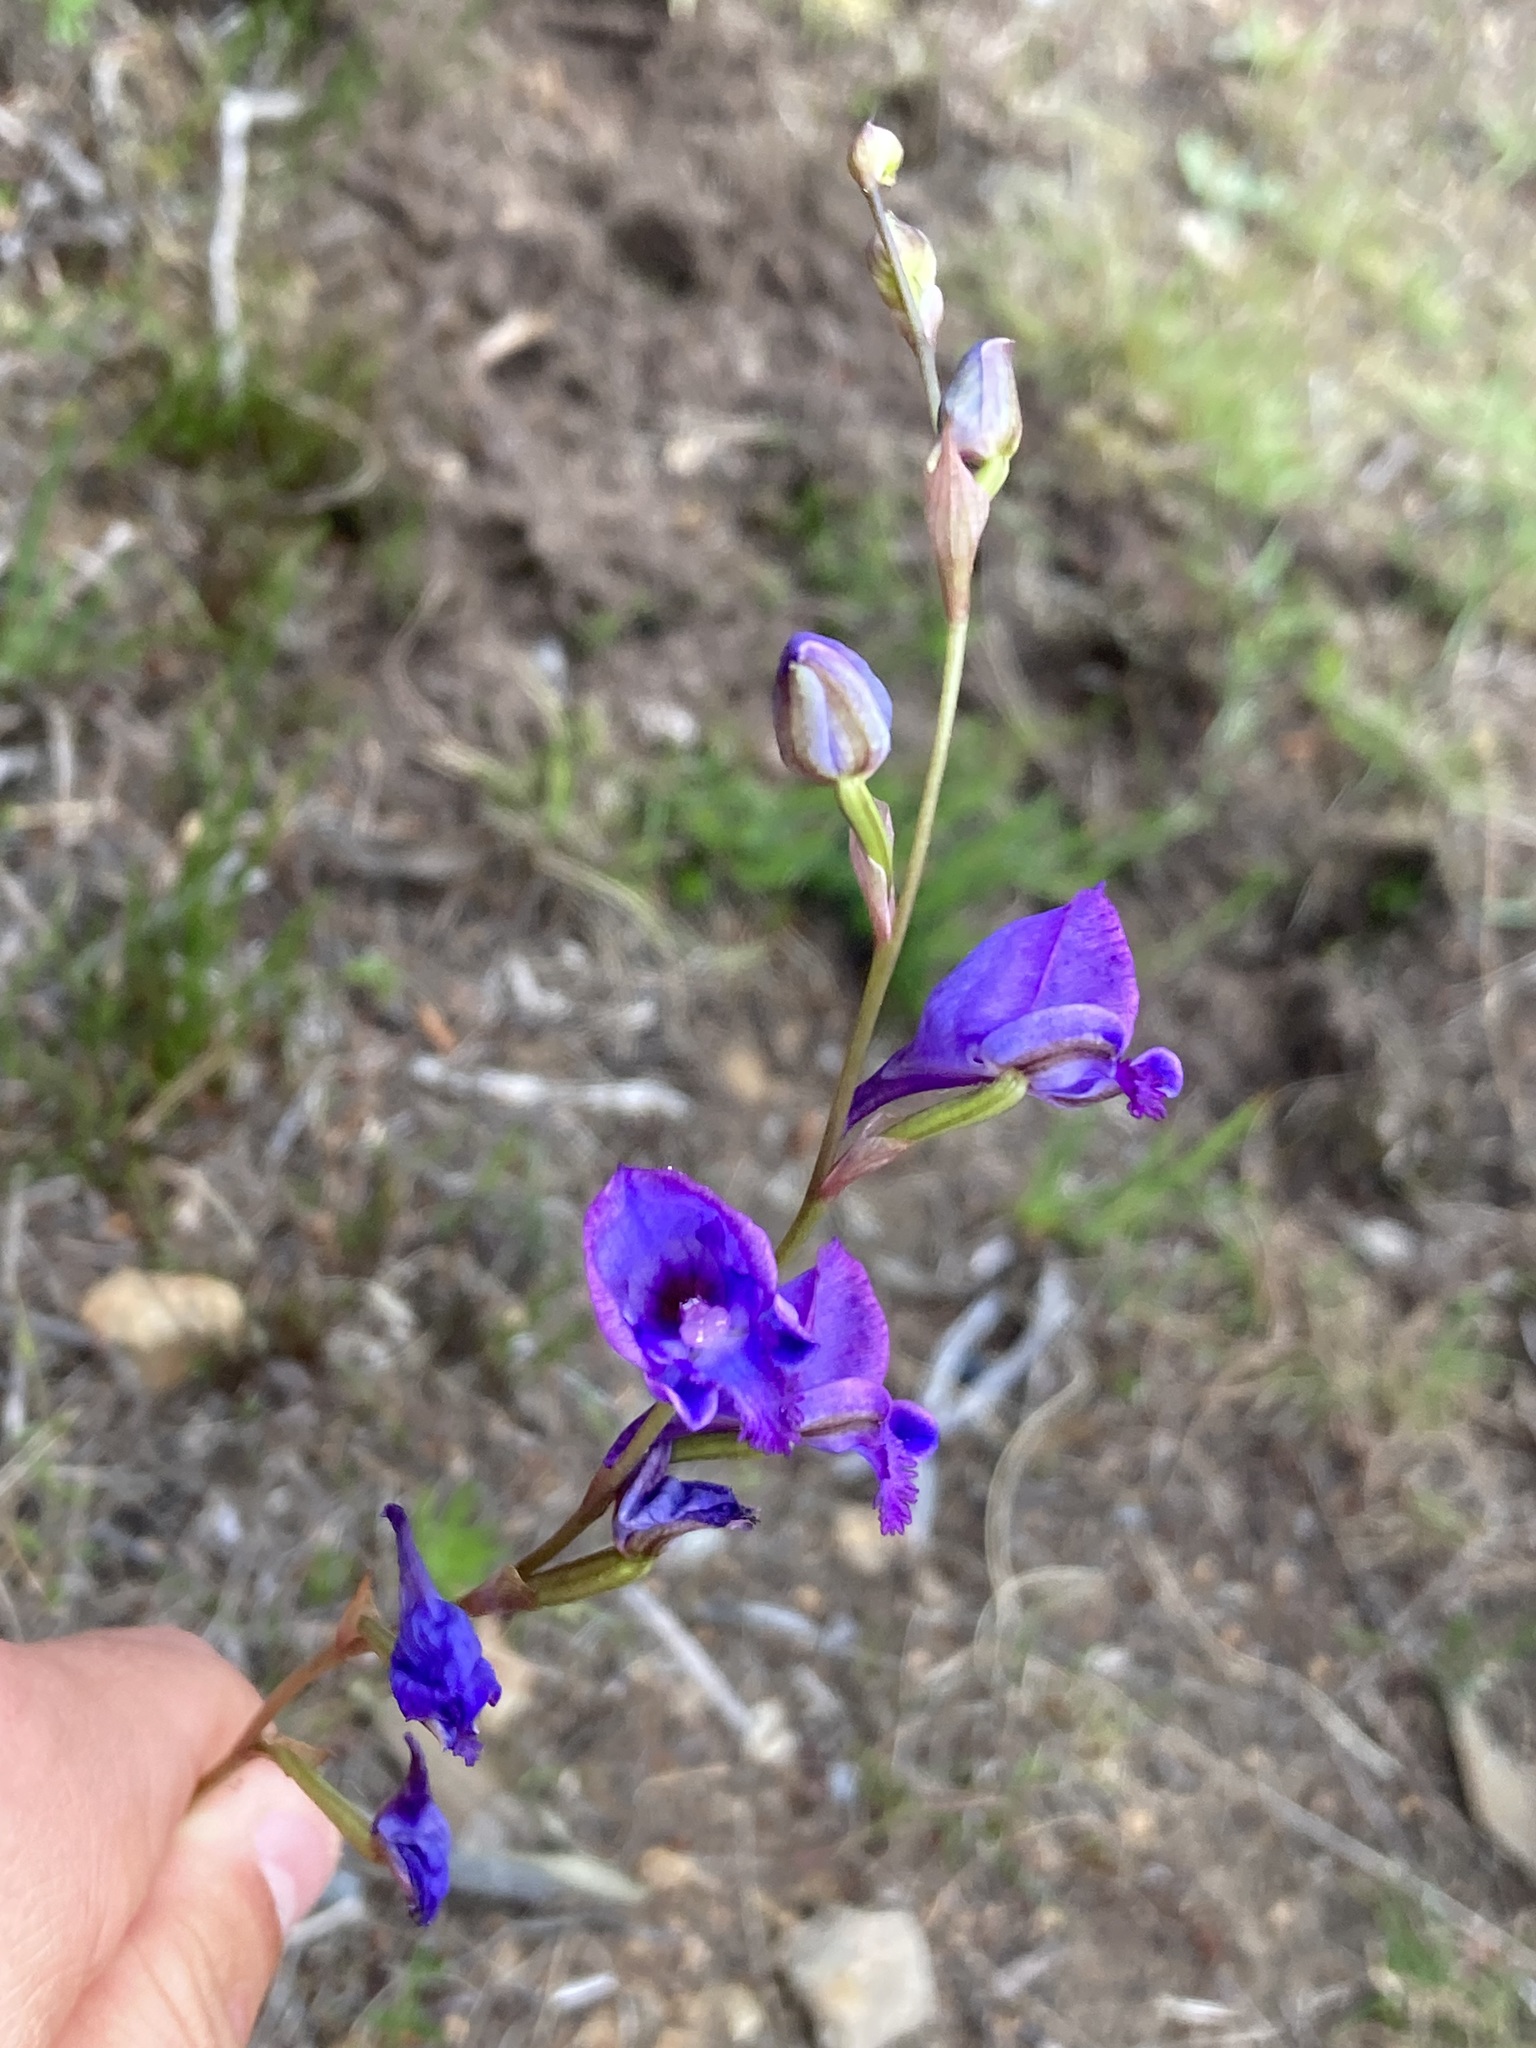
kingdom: Plantae
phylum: Tracheophyta
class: Liliopsida
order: Asparagales
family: Orchidaceae
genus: Disa
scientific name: Disa hians
